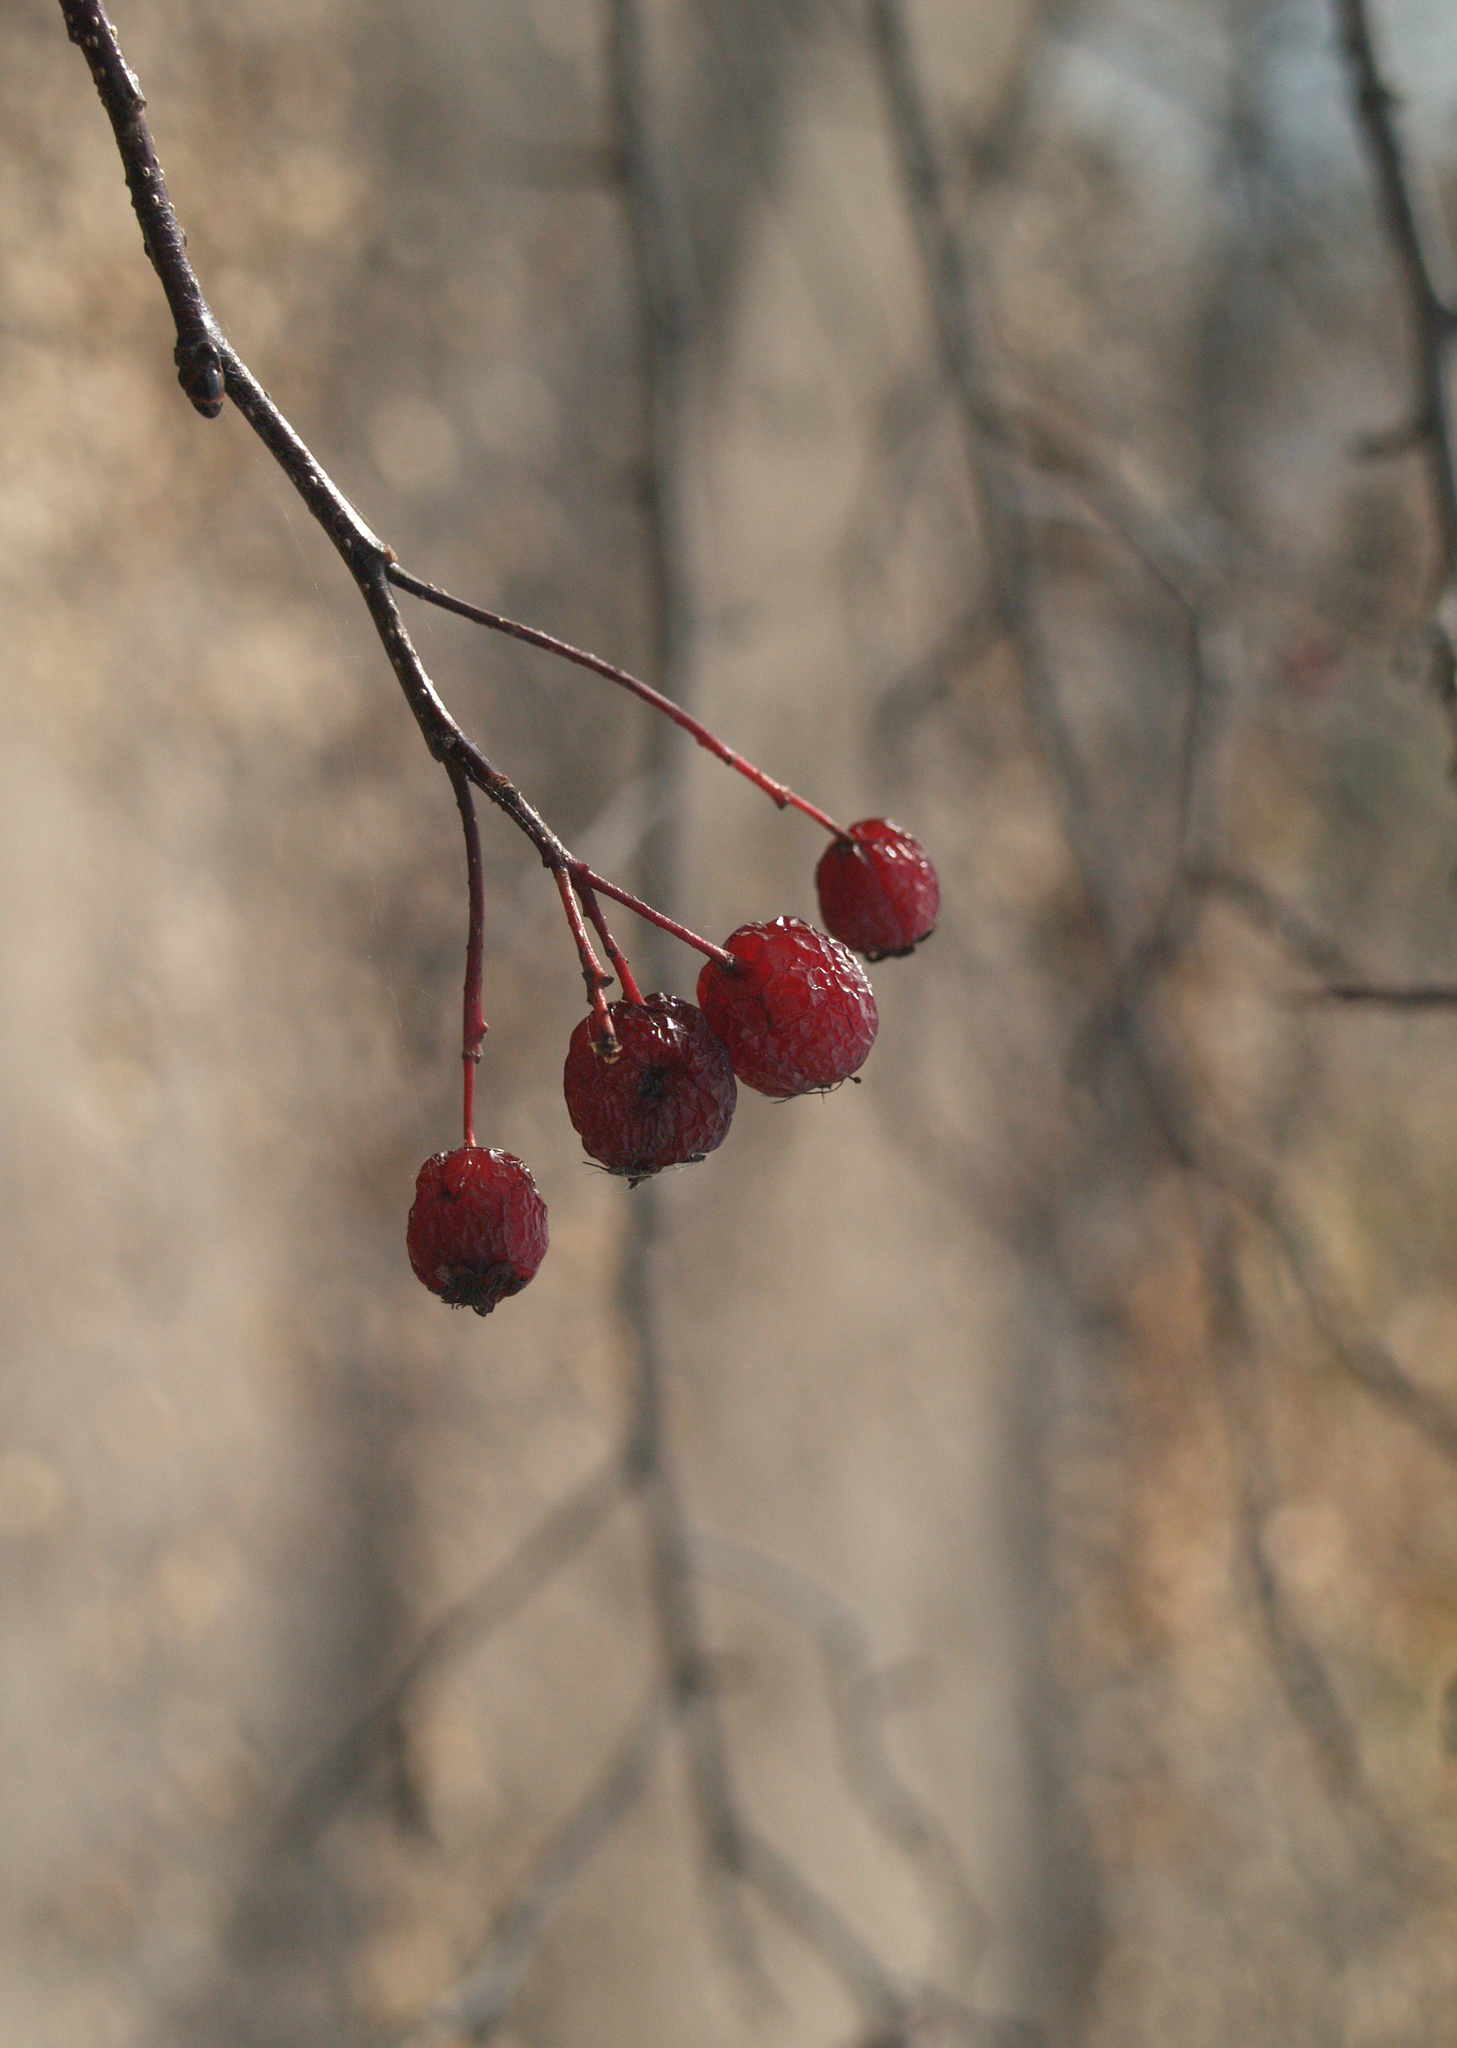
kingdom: Plantae
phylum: Tracheophyta
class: Magnoliopsida
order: Rosales
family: Rosaceae
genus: Malus
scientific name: Malus baccata
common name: Siberian crab
